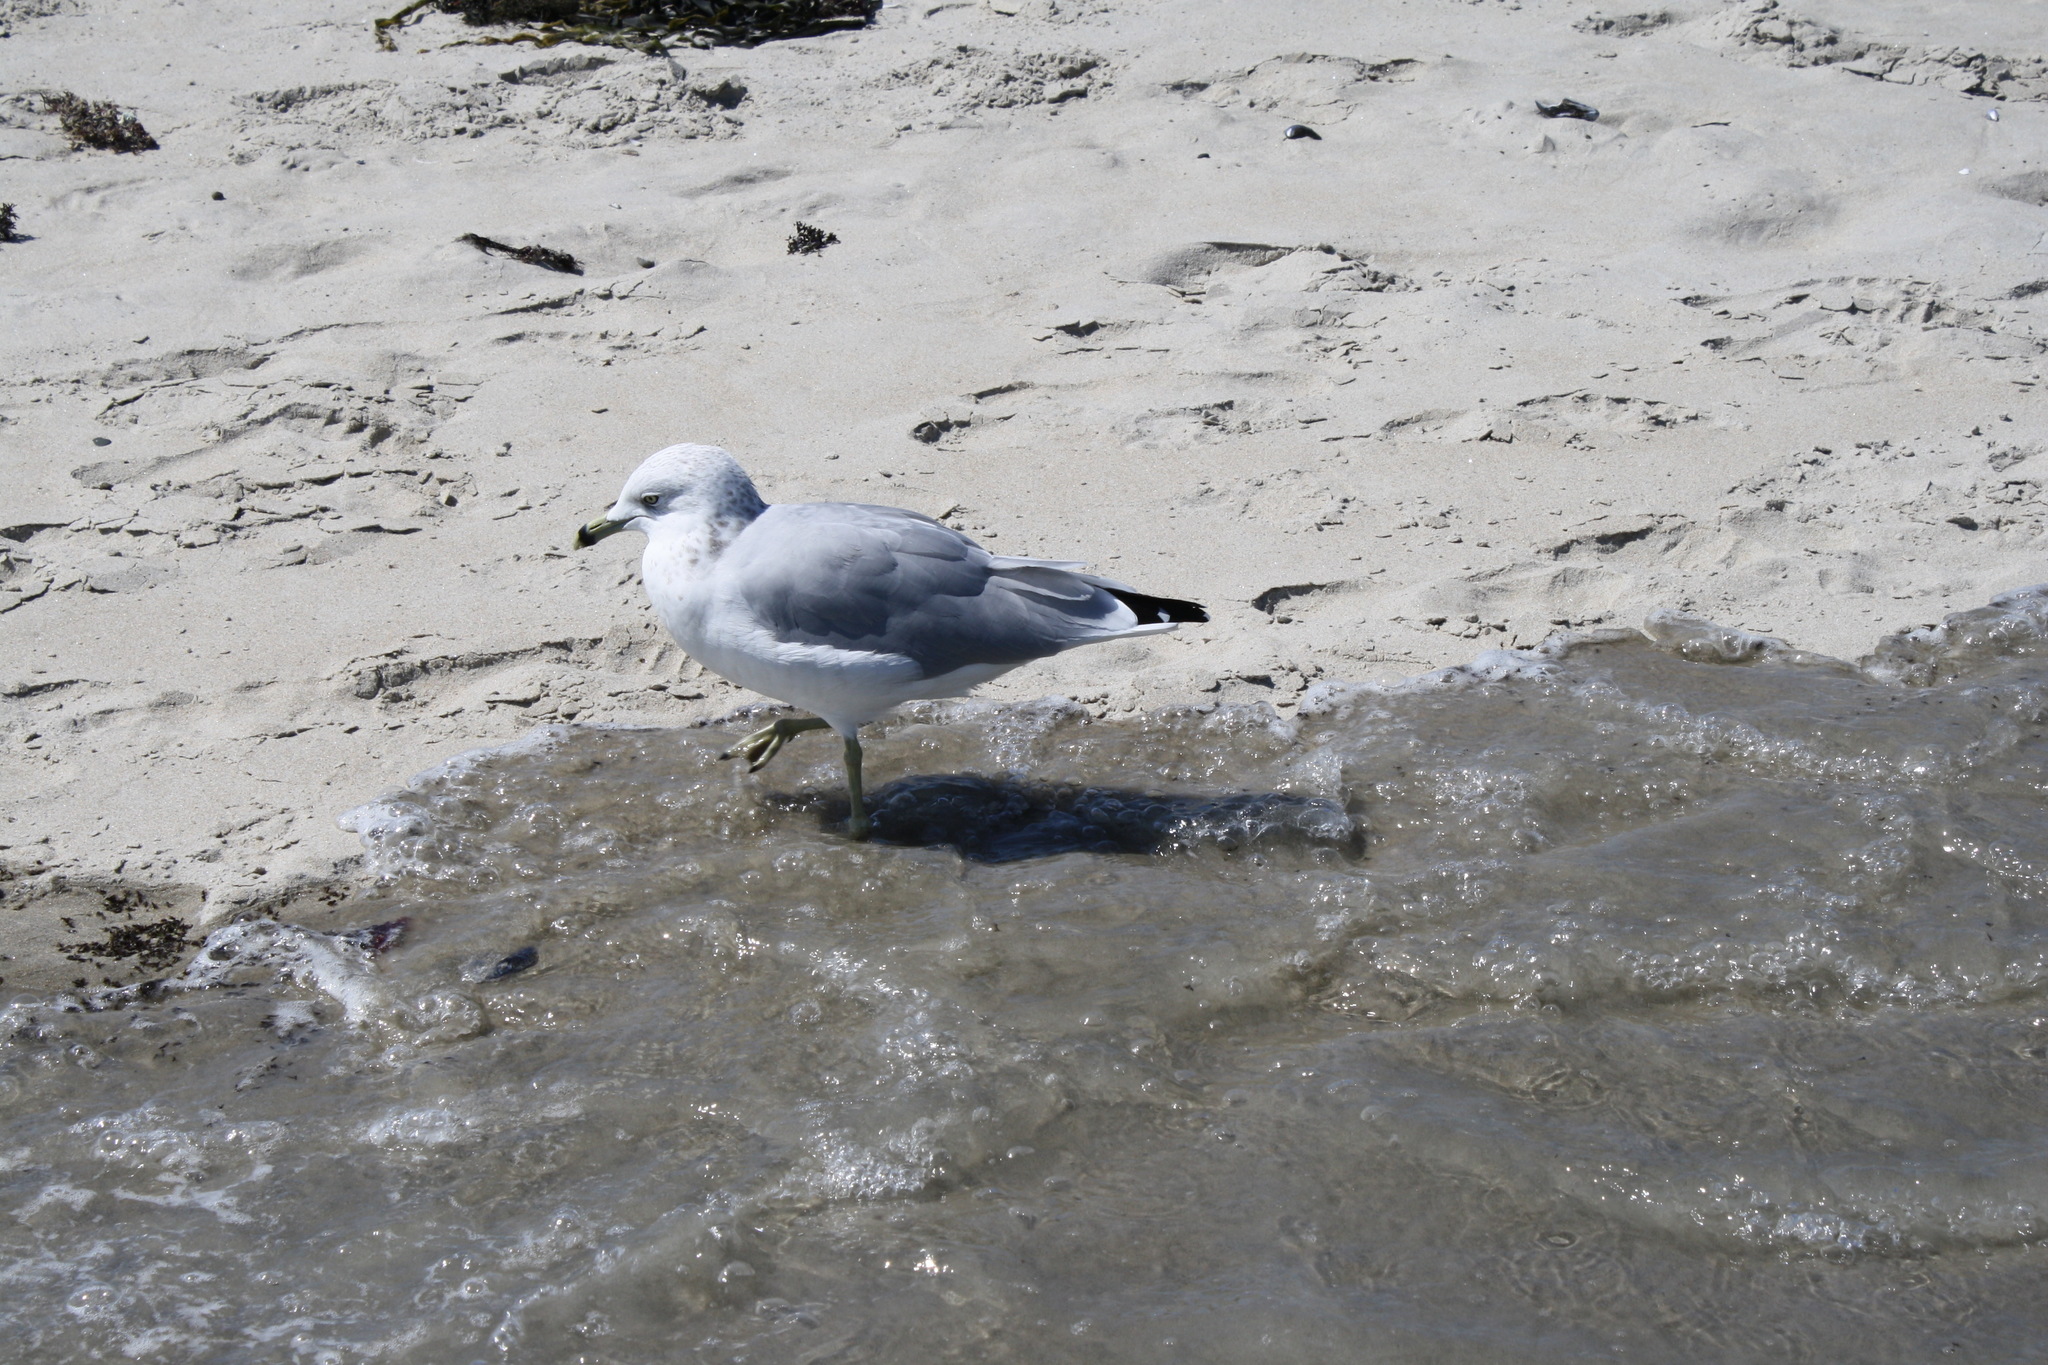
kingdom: Animalia
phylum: Chordata
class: Aves
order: Charadriiformes
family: Laridae
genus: Larus
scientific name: Larus delawarensis
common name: Ring-billed gull
